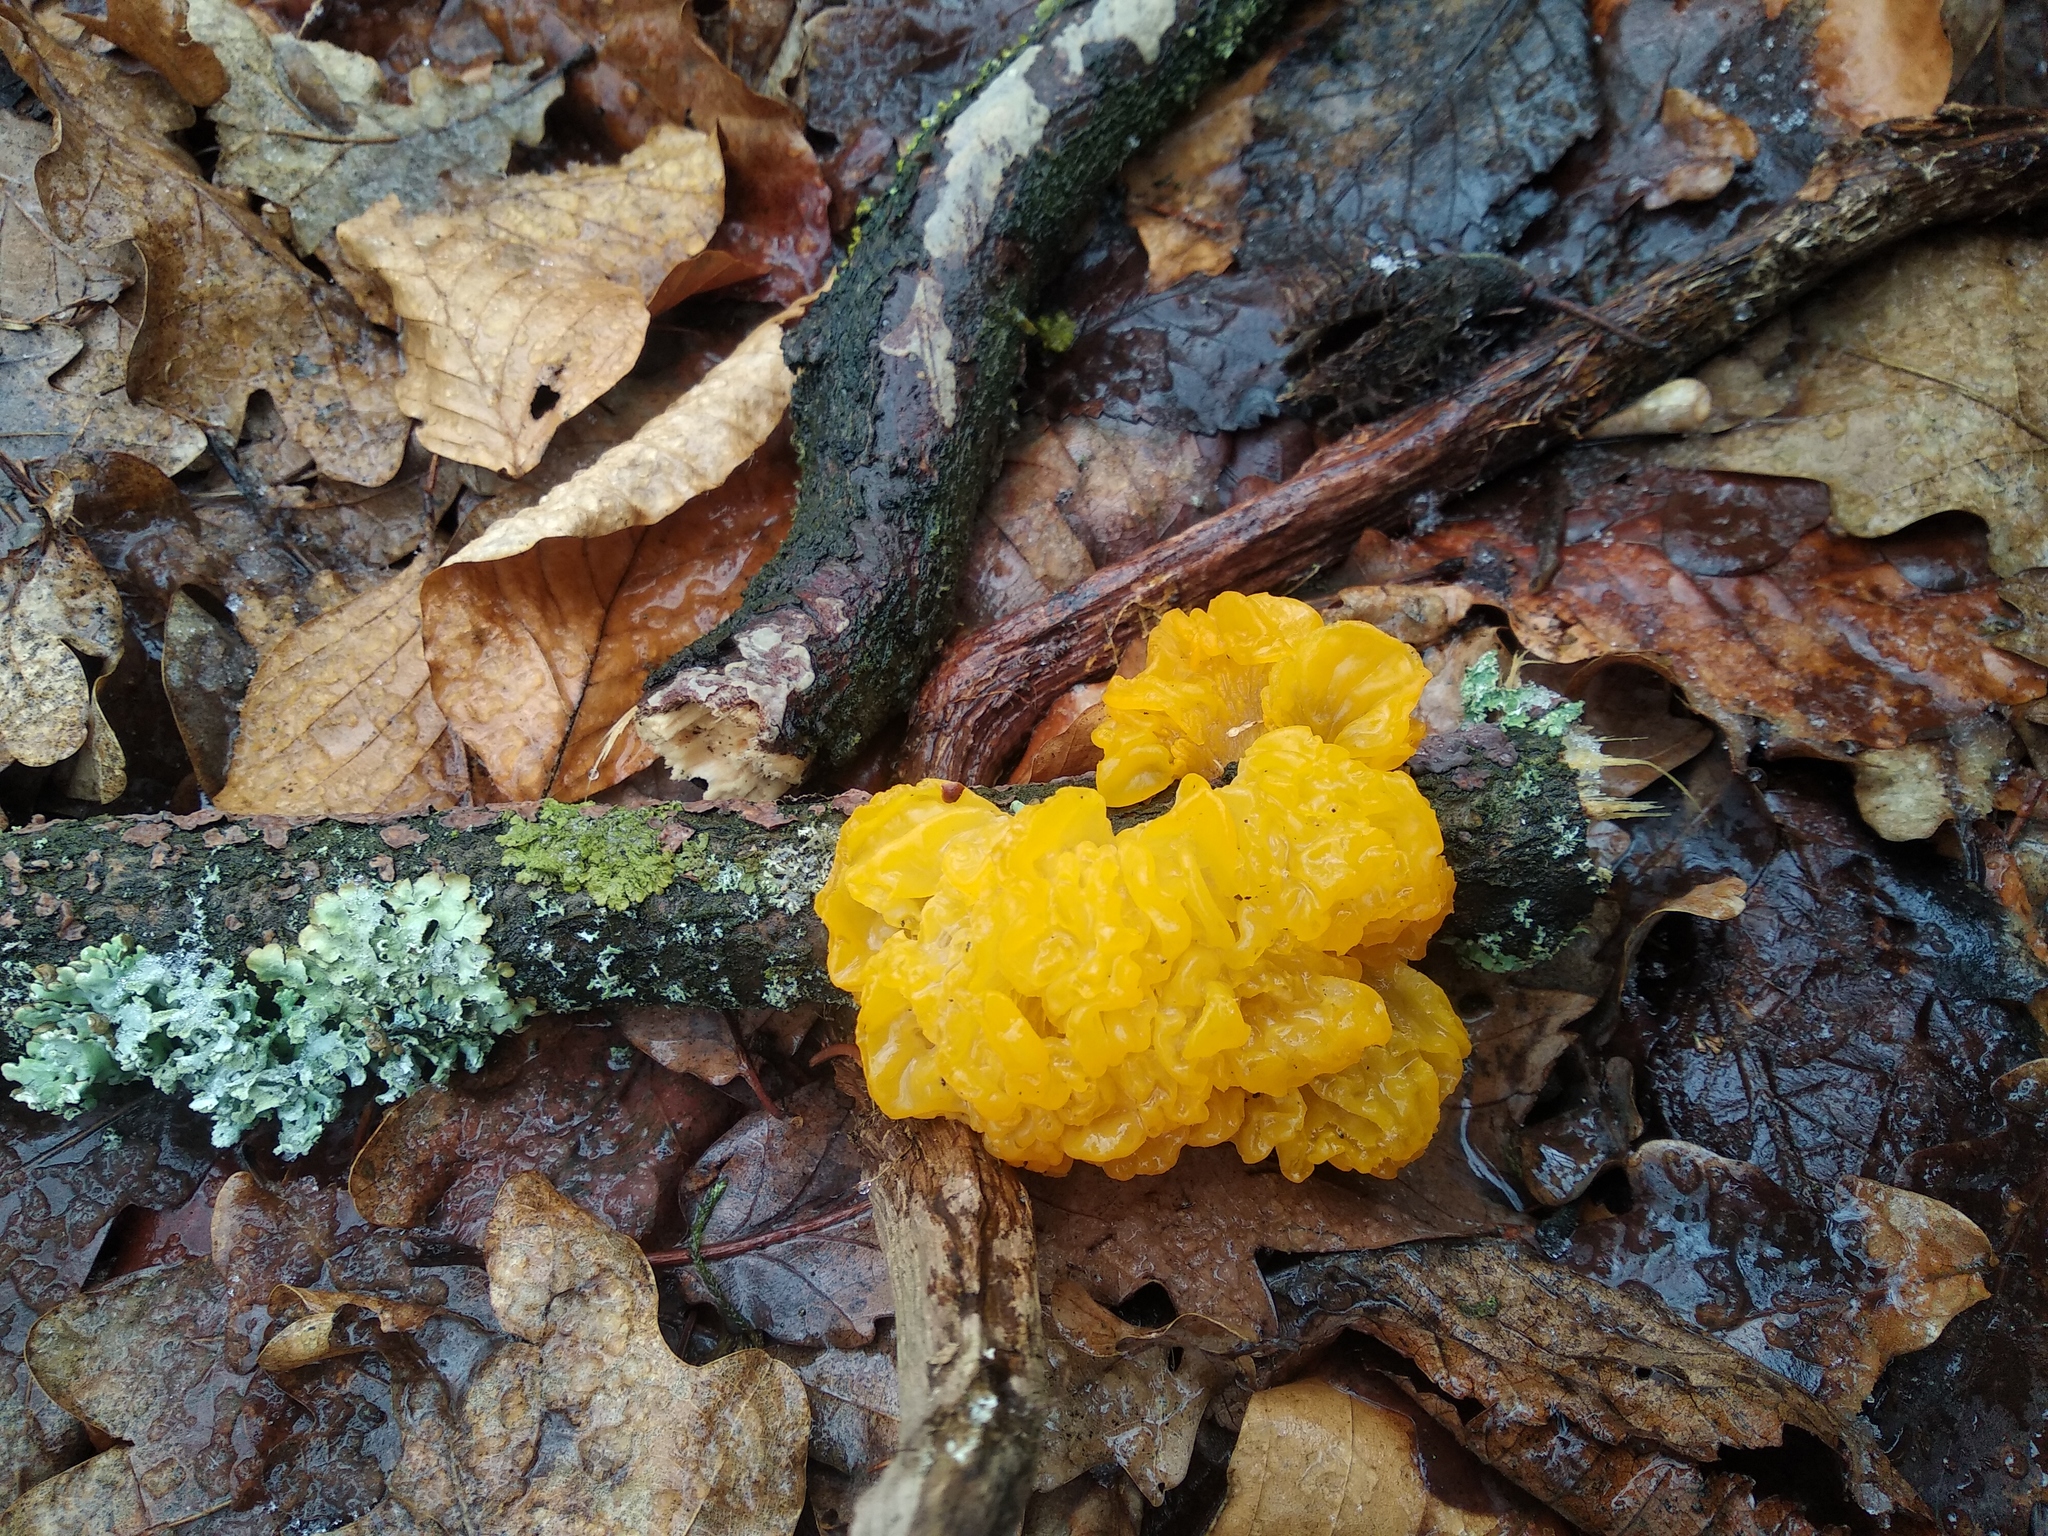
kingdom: Fungi
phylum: Basidiomycota
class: Tremellomycetes
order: Tremellales
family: Tremellaceae
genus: Tremella
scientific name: Tremella mesenterica
